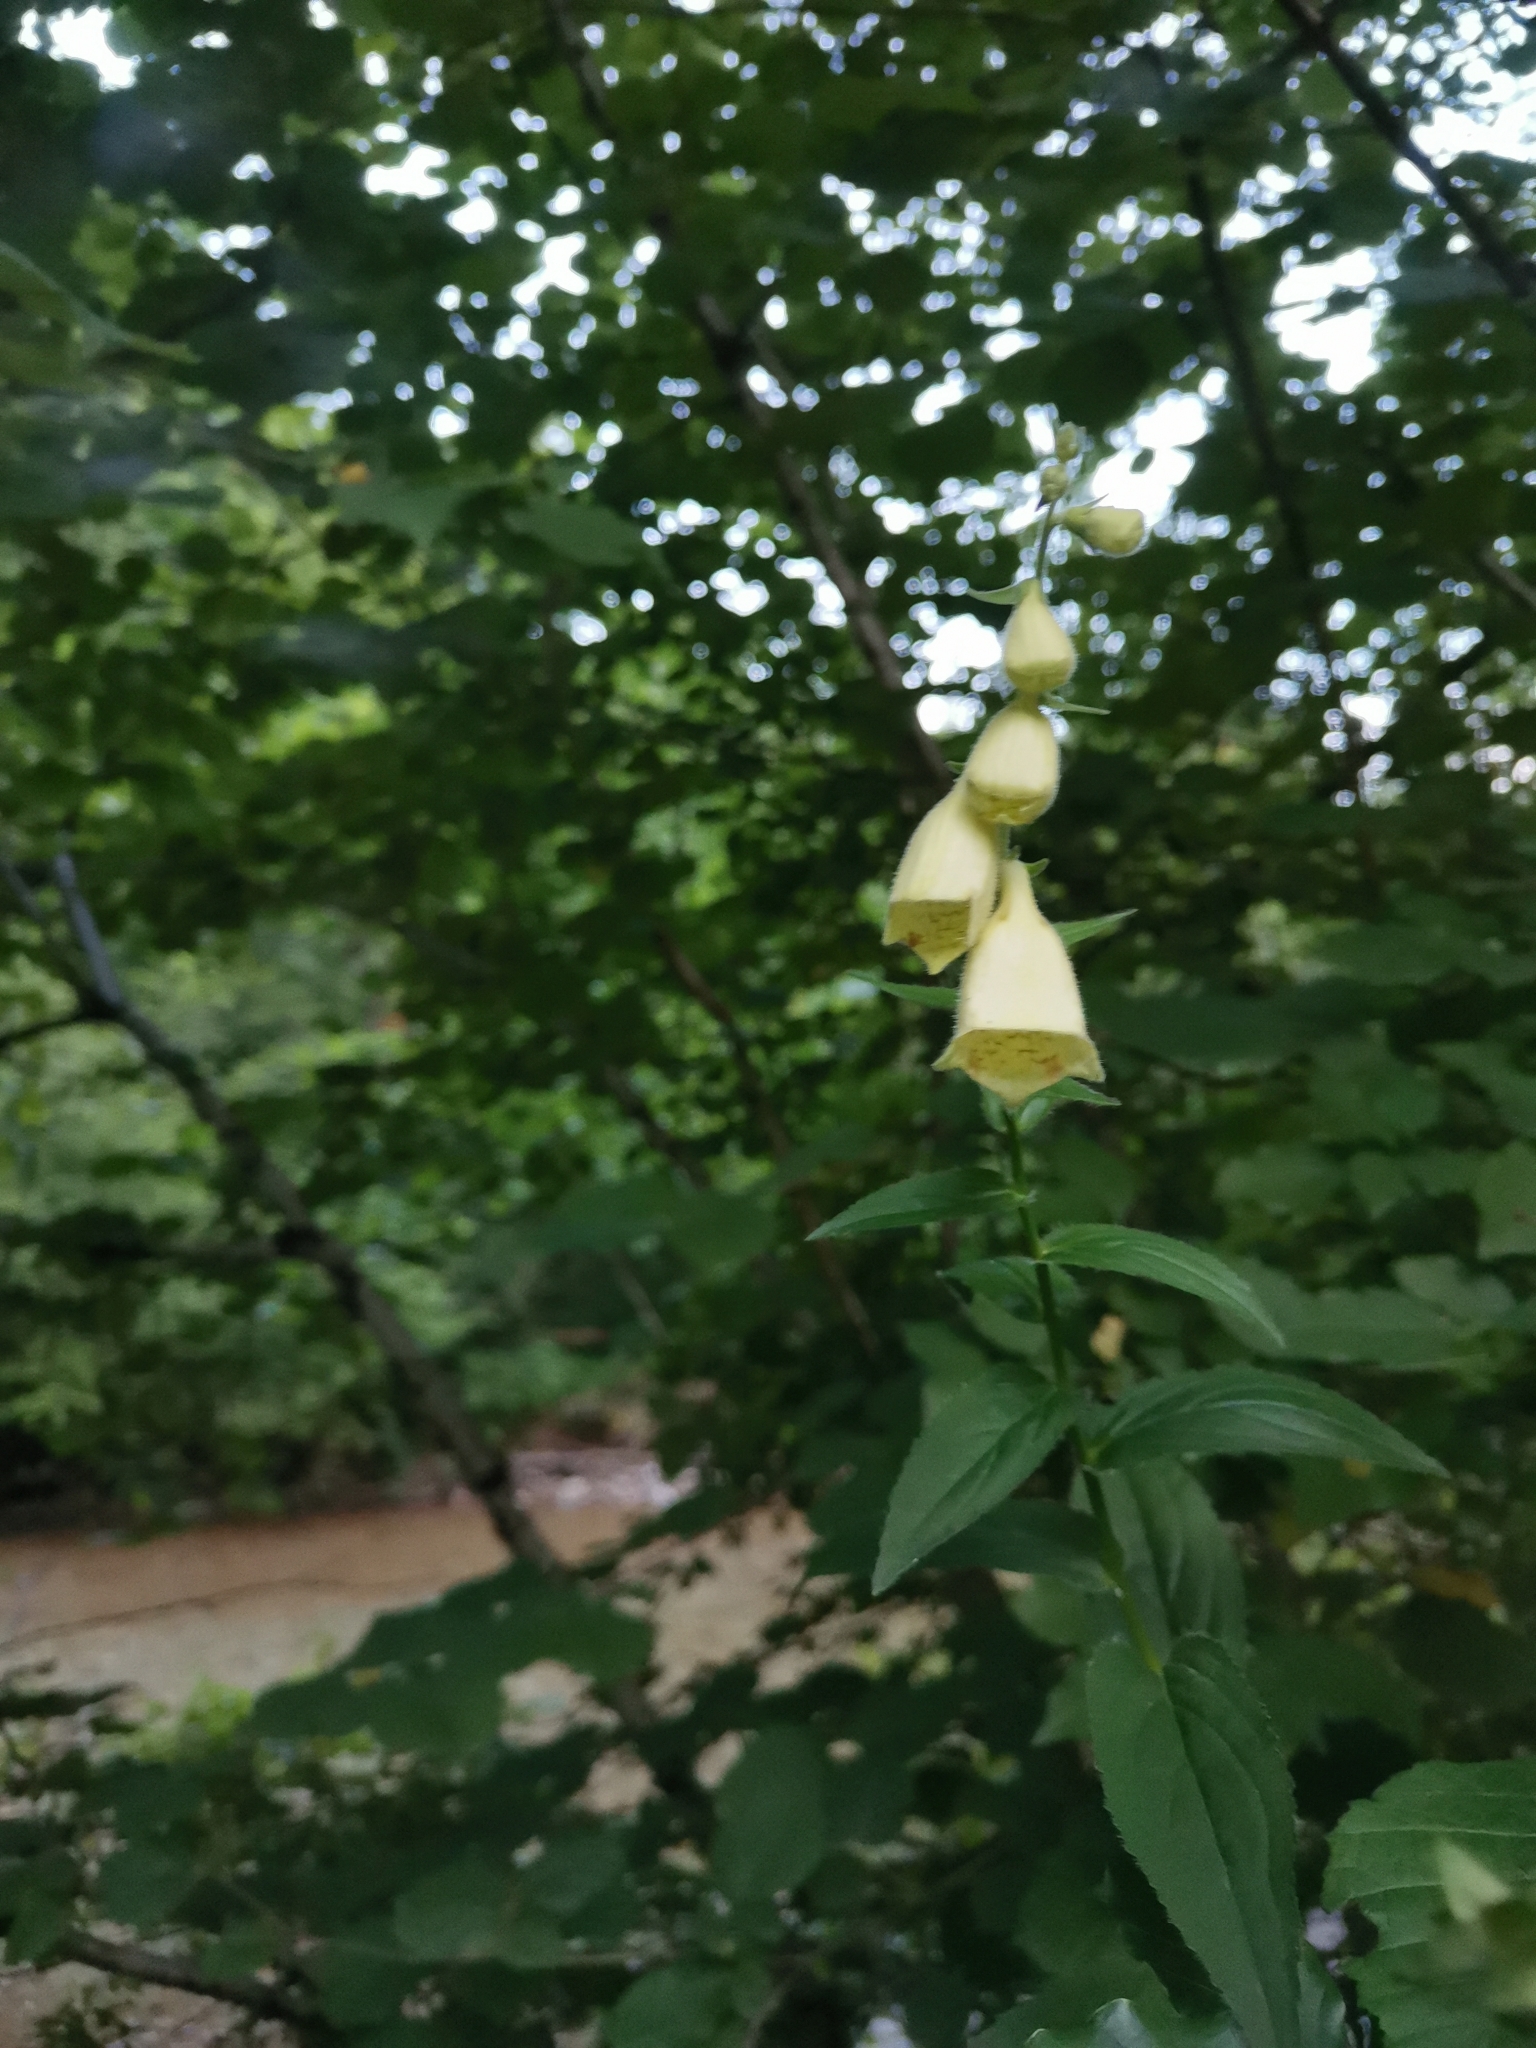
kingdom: Plantae
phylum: Tracheophyta
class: Magnoliopsida
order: Lamiales
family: Plantaginaceae
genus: Digitalis
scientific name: Digitalis grandiflora
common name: Yellow foxglove
